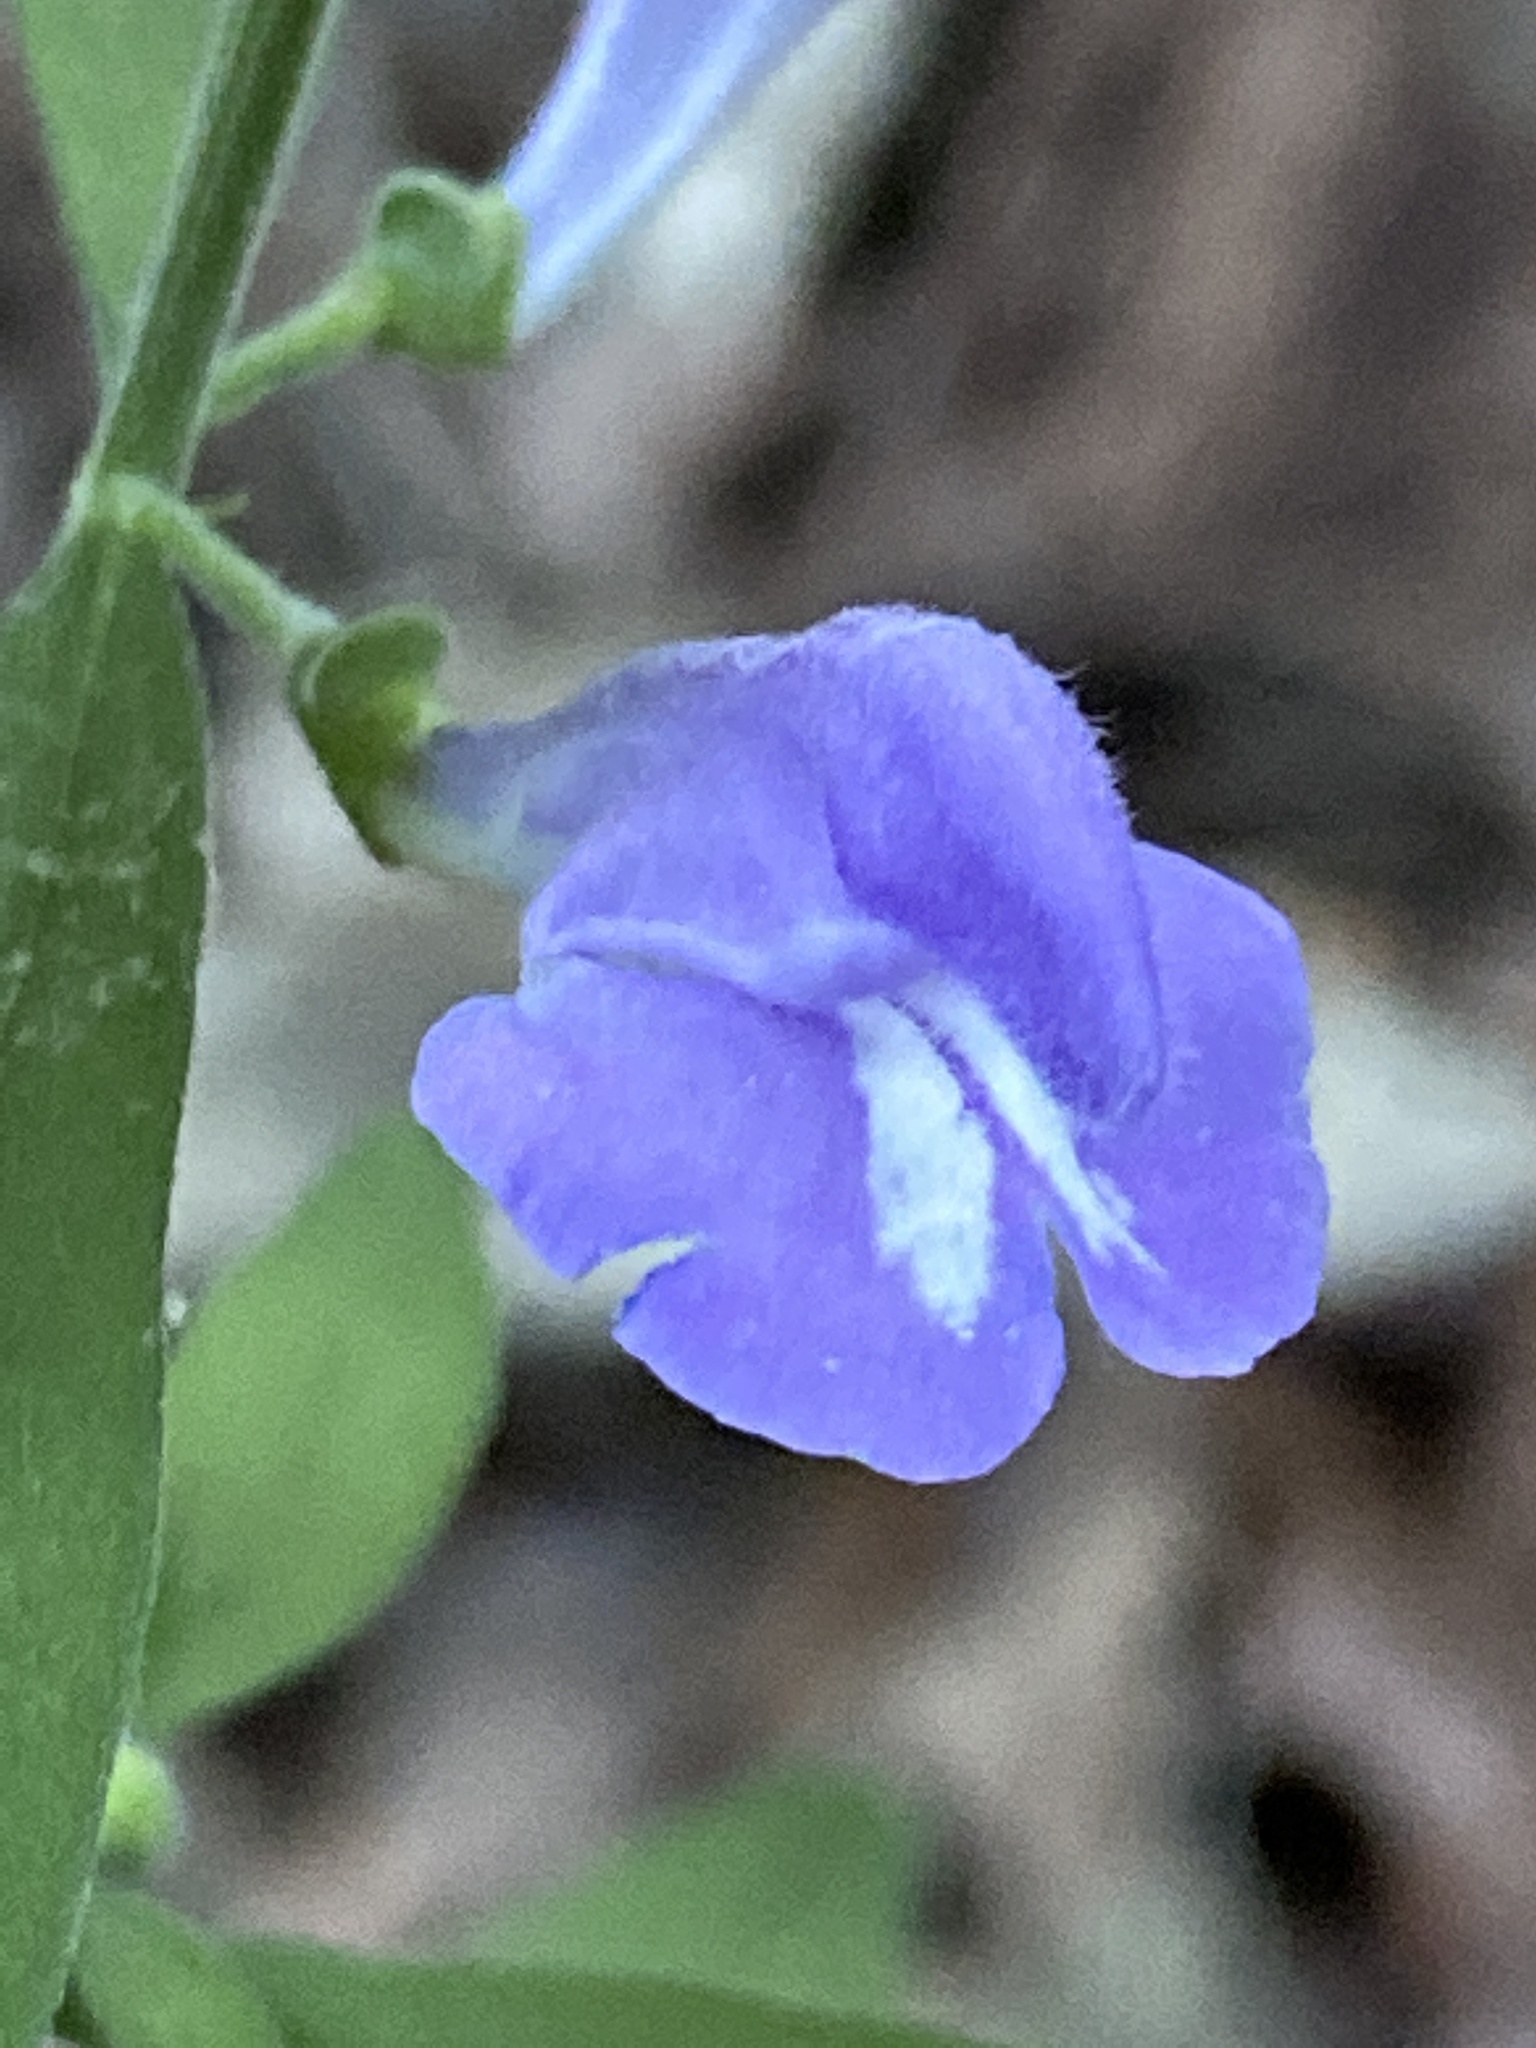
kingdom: Plantae
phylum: Tracheophyta
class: Magnoliopsida
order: Lamiales
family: Lamiaceae
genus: Scutellaria
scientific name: Scutellaria integrifolia
